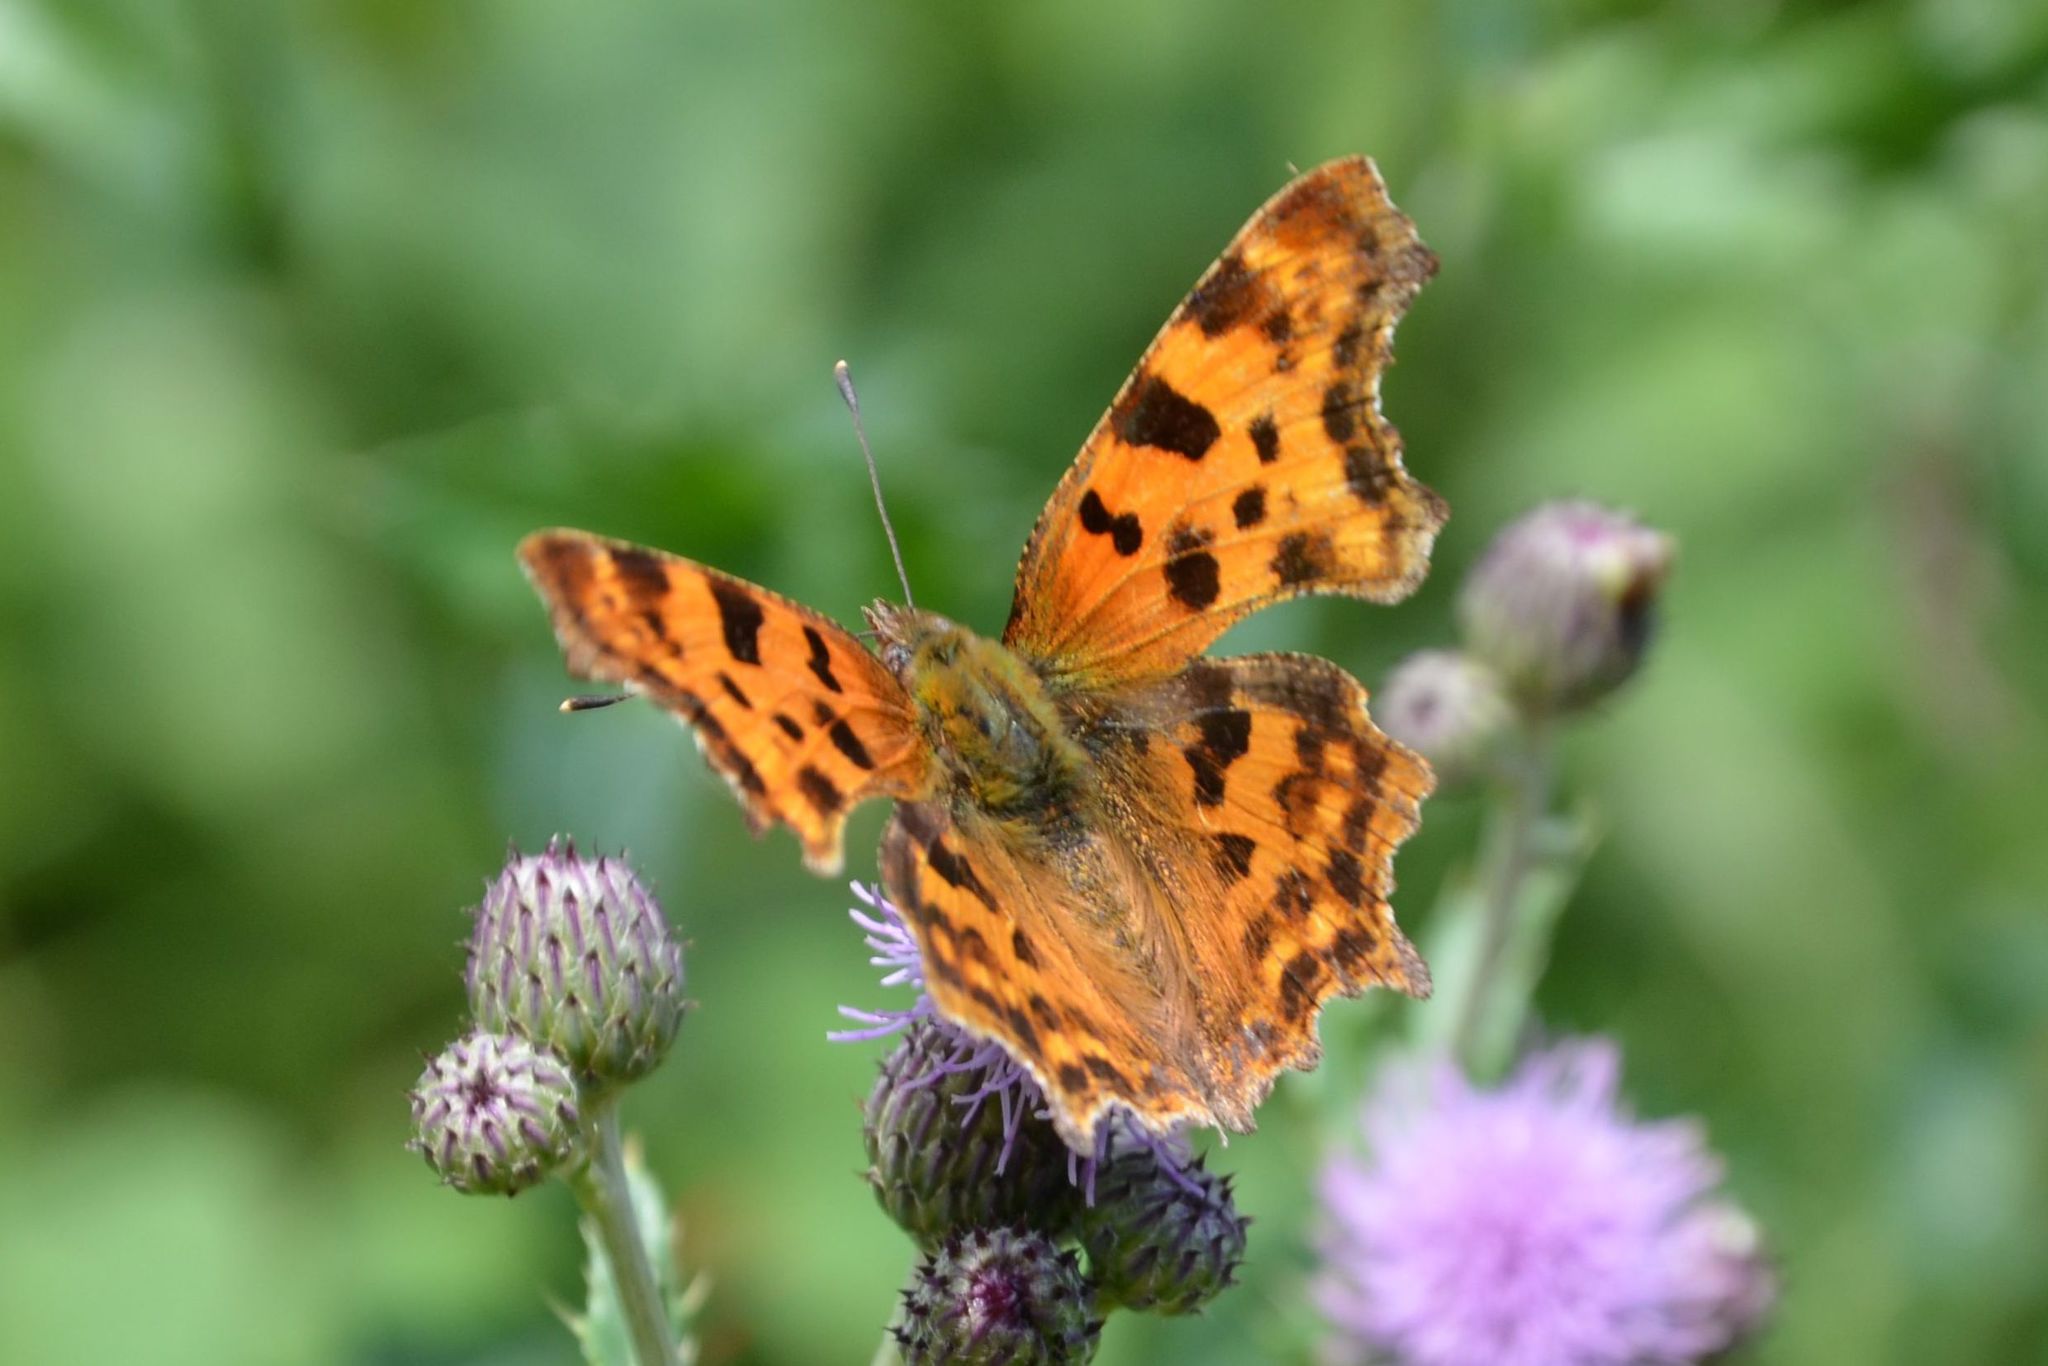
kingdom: Animalia
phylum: Arthropoda
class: Insecta
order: Lepidoptera
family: Nymphalidae
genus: Polygonia
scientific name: Polygonia c-album
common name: Comma
